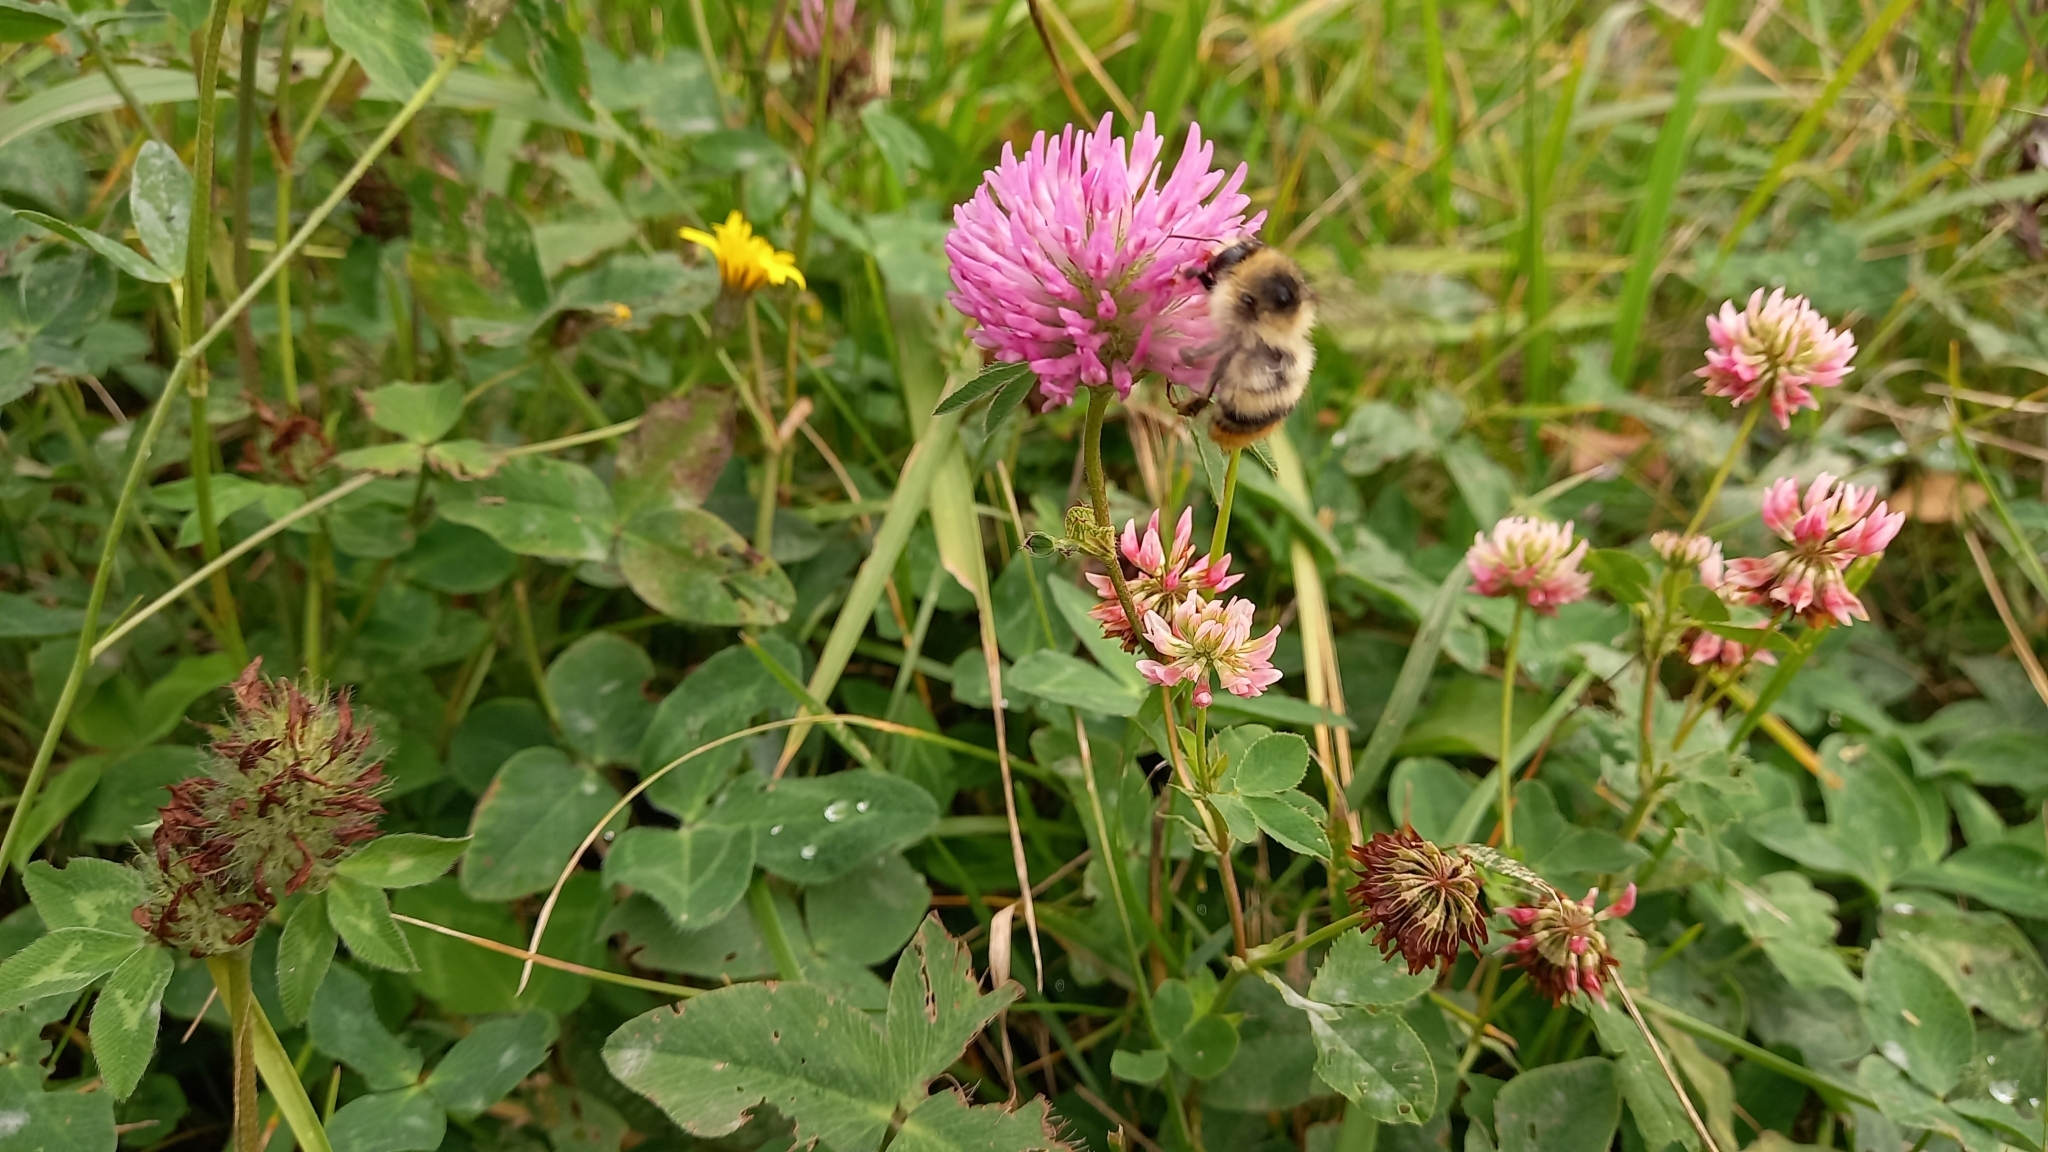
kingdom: Animalia
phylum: Arthropoda
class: Insecta
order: Hymenoptera
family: Apidae
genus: Bombus
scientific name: Bombus sylvarum
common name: Shrill carder bee
